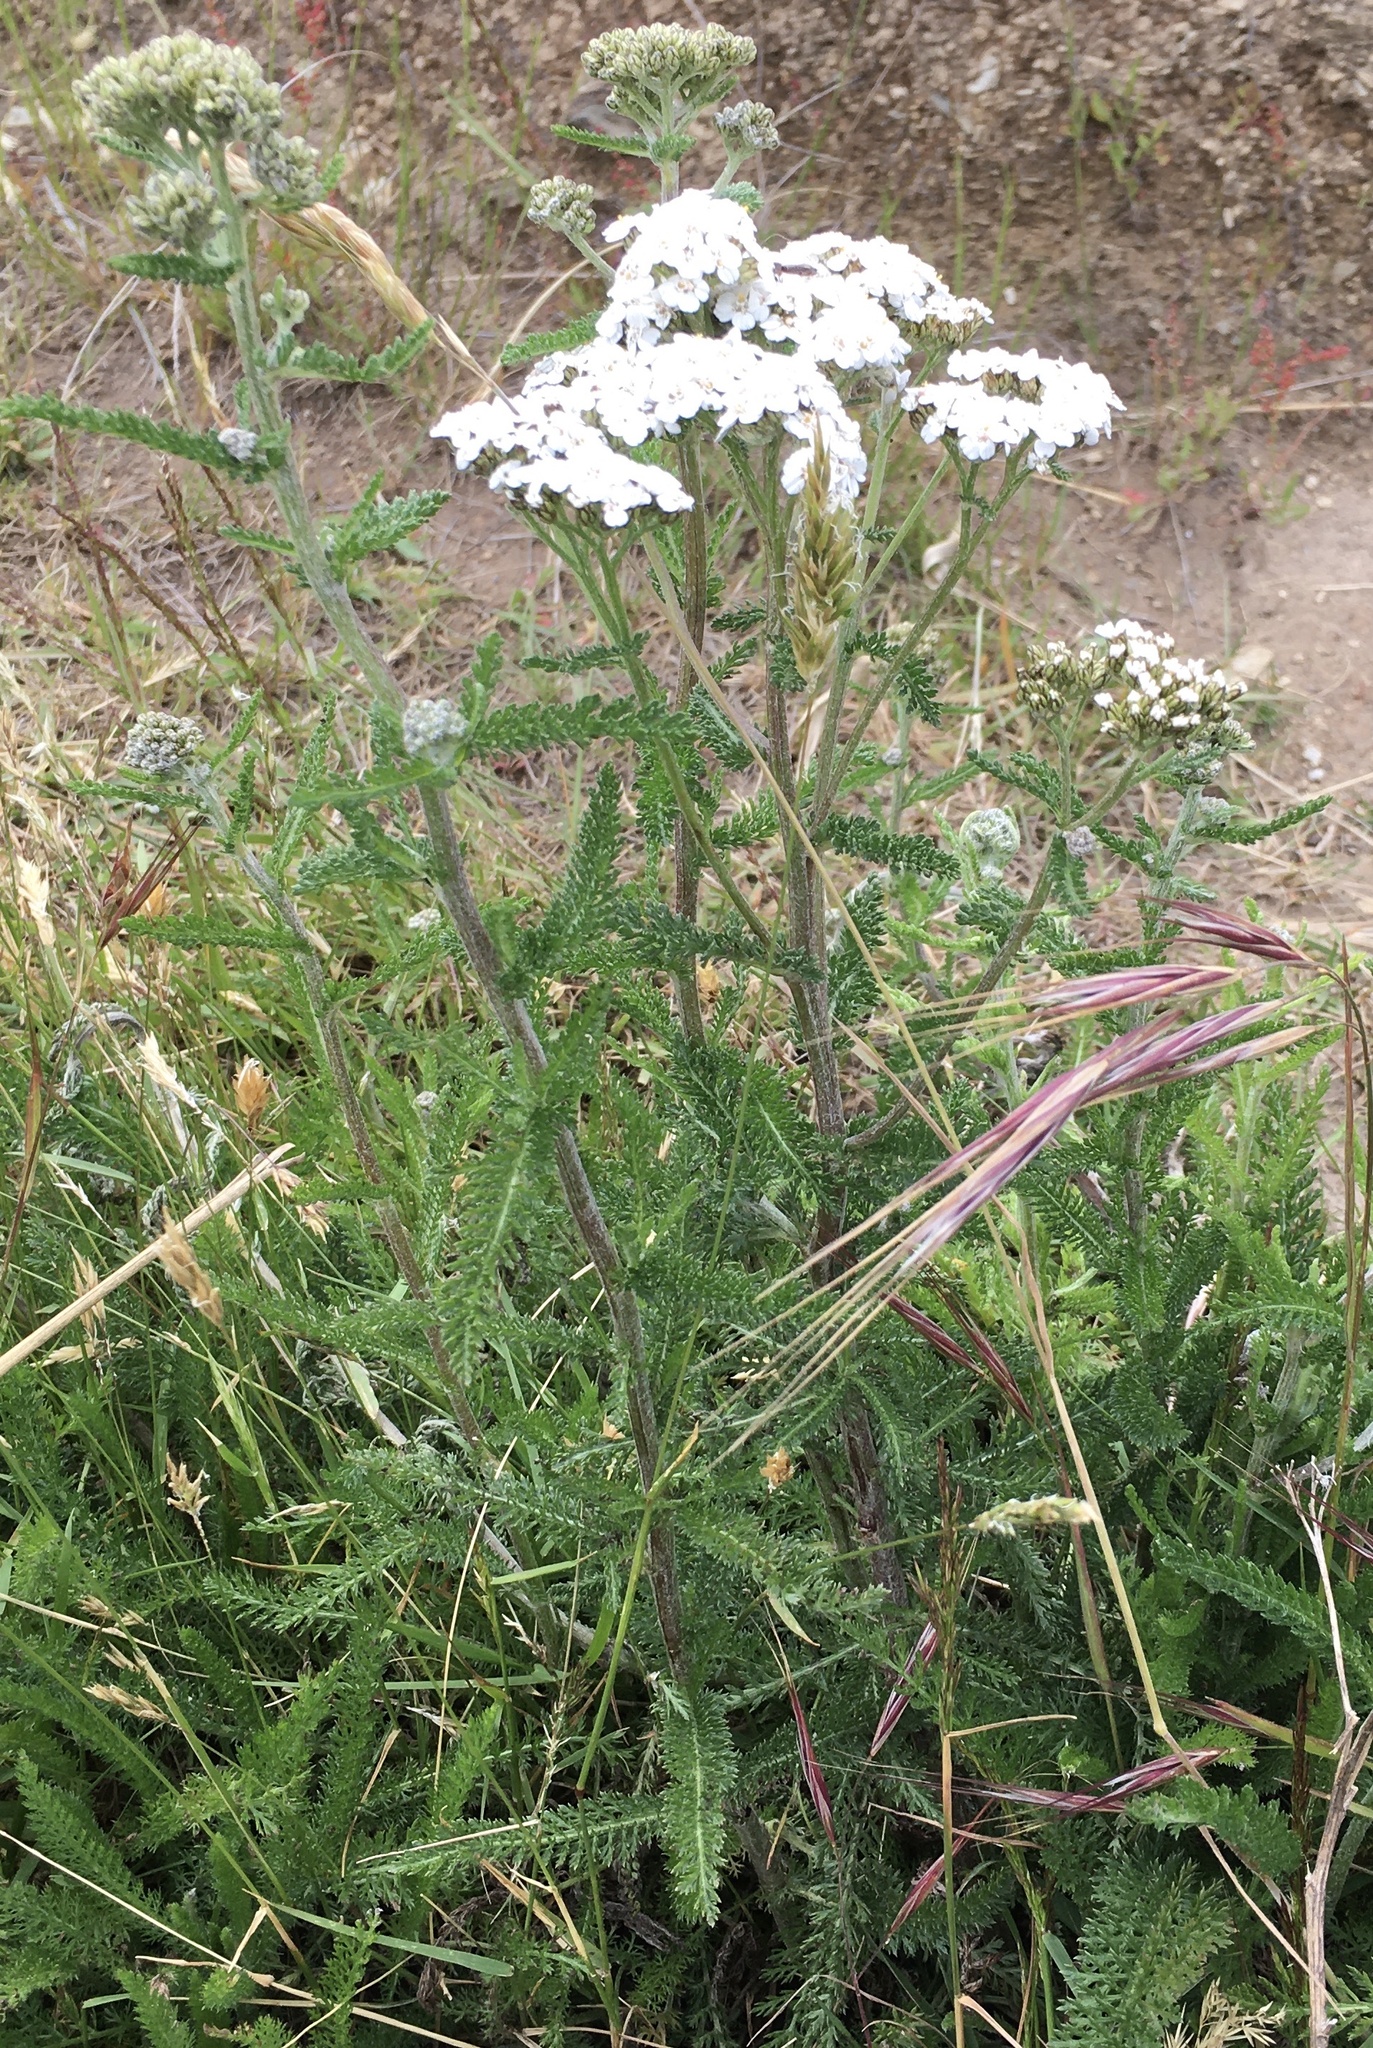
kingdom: Plantae
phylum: Tracheophyta
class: Magnoliopsida
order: Asterales
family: Asteraceae
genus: Achillea
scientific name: Achillea millefolium
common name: Yarrow
